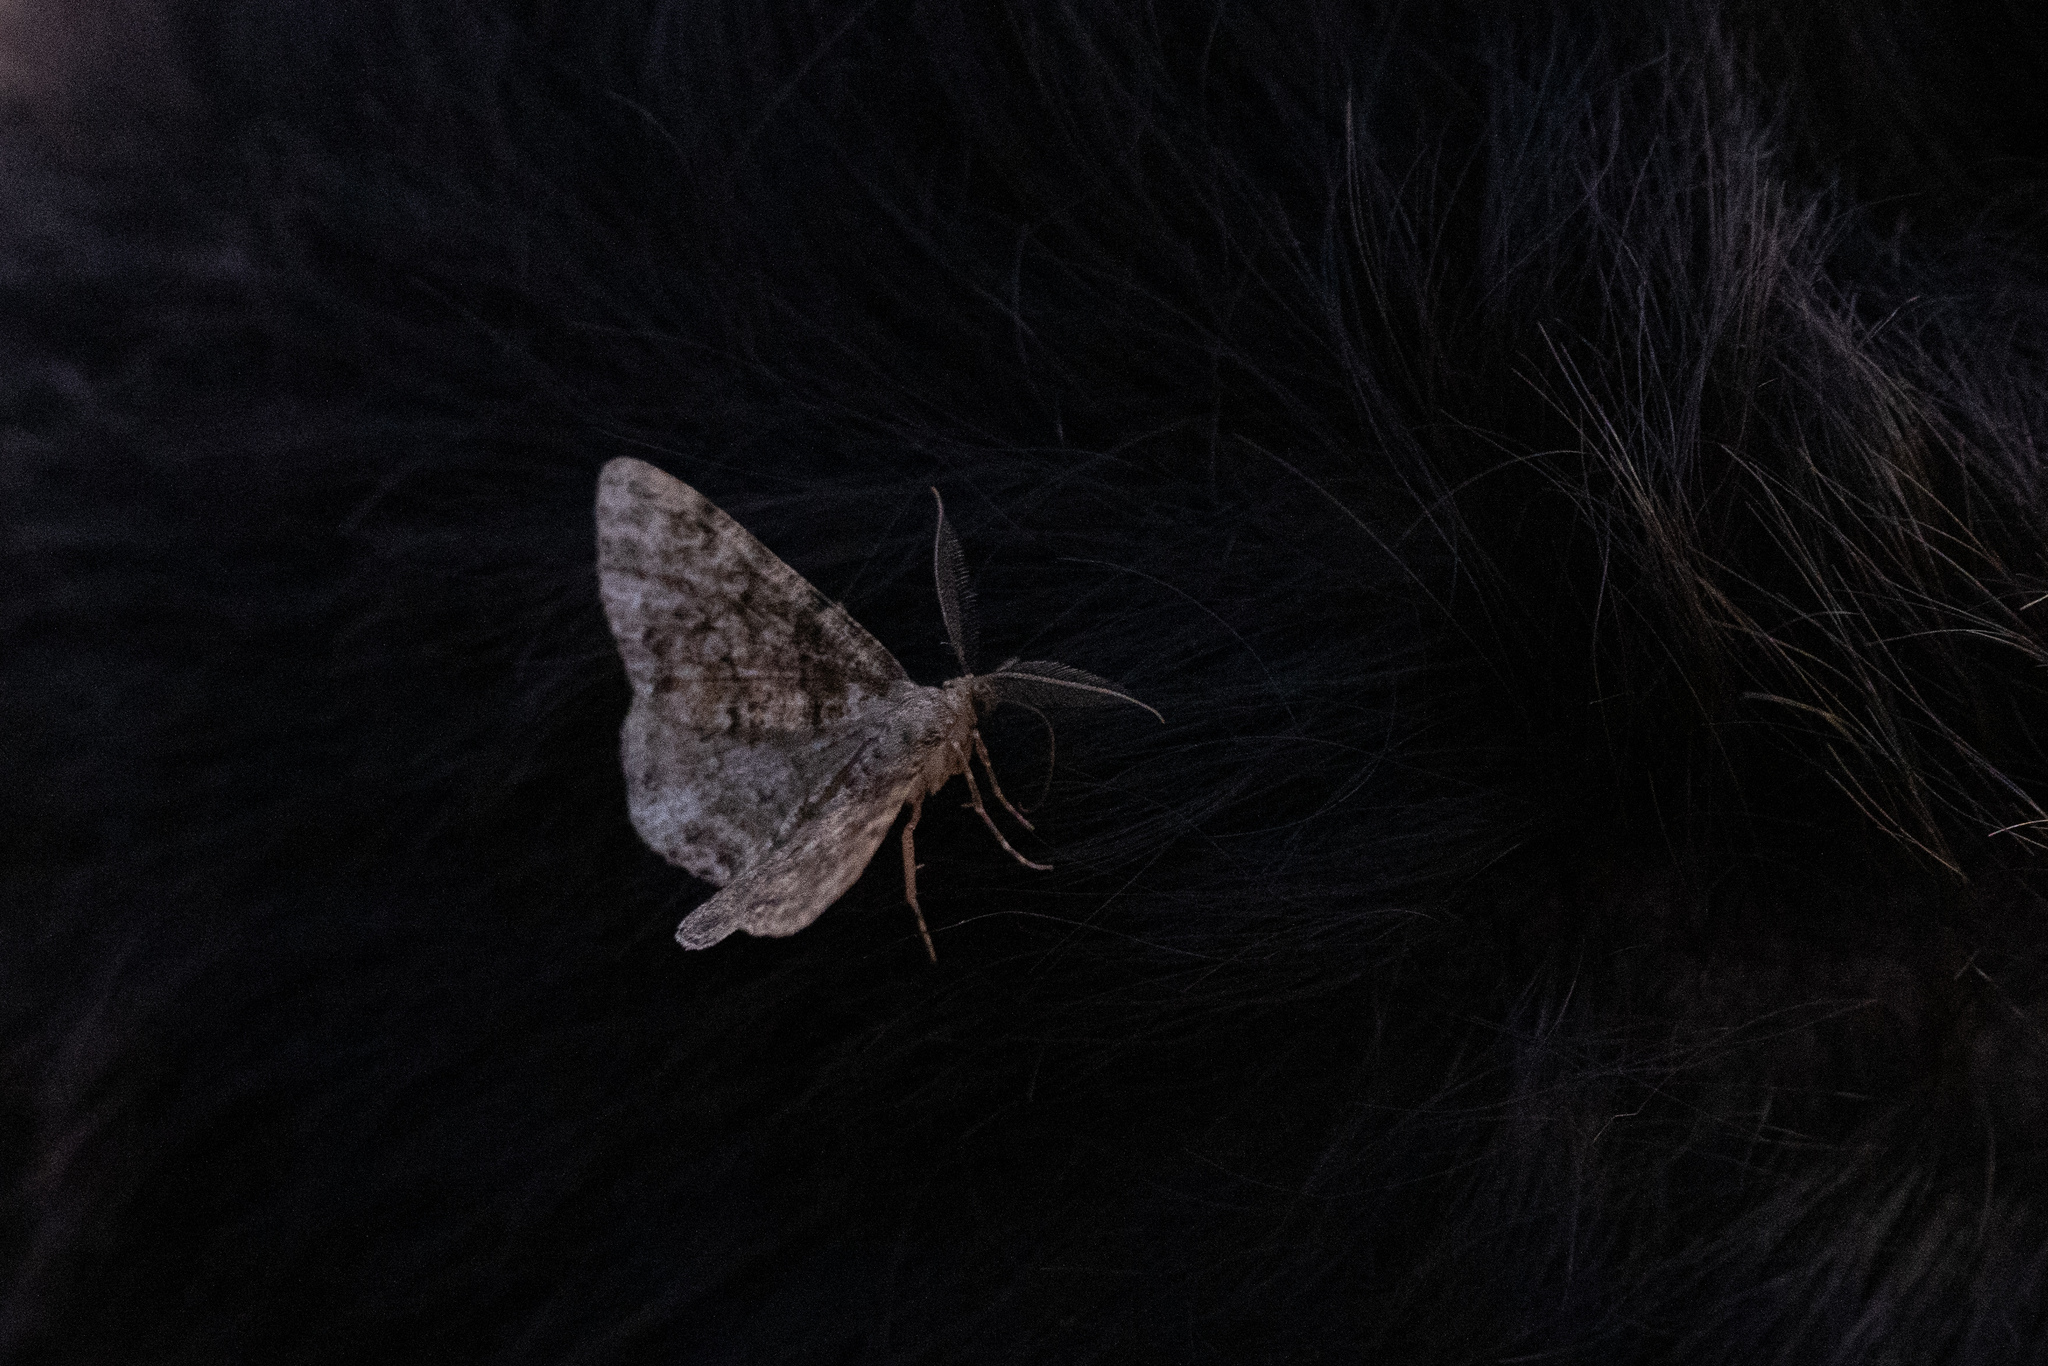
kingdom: Animalia
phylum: Arthropoda
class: Insecta
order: Lepidoptera
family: Geometridae
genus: Deileptenia
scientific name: Deileptenia ribeata
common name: Satin beauty
